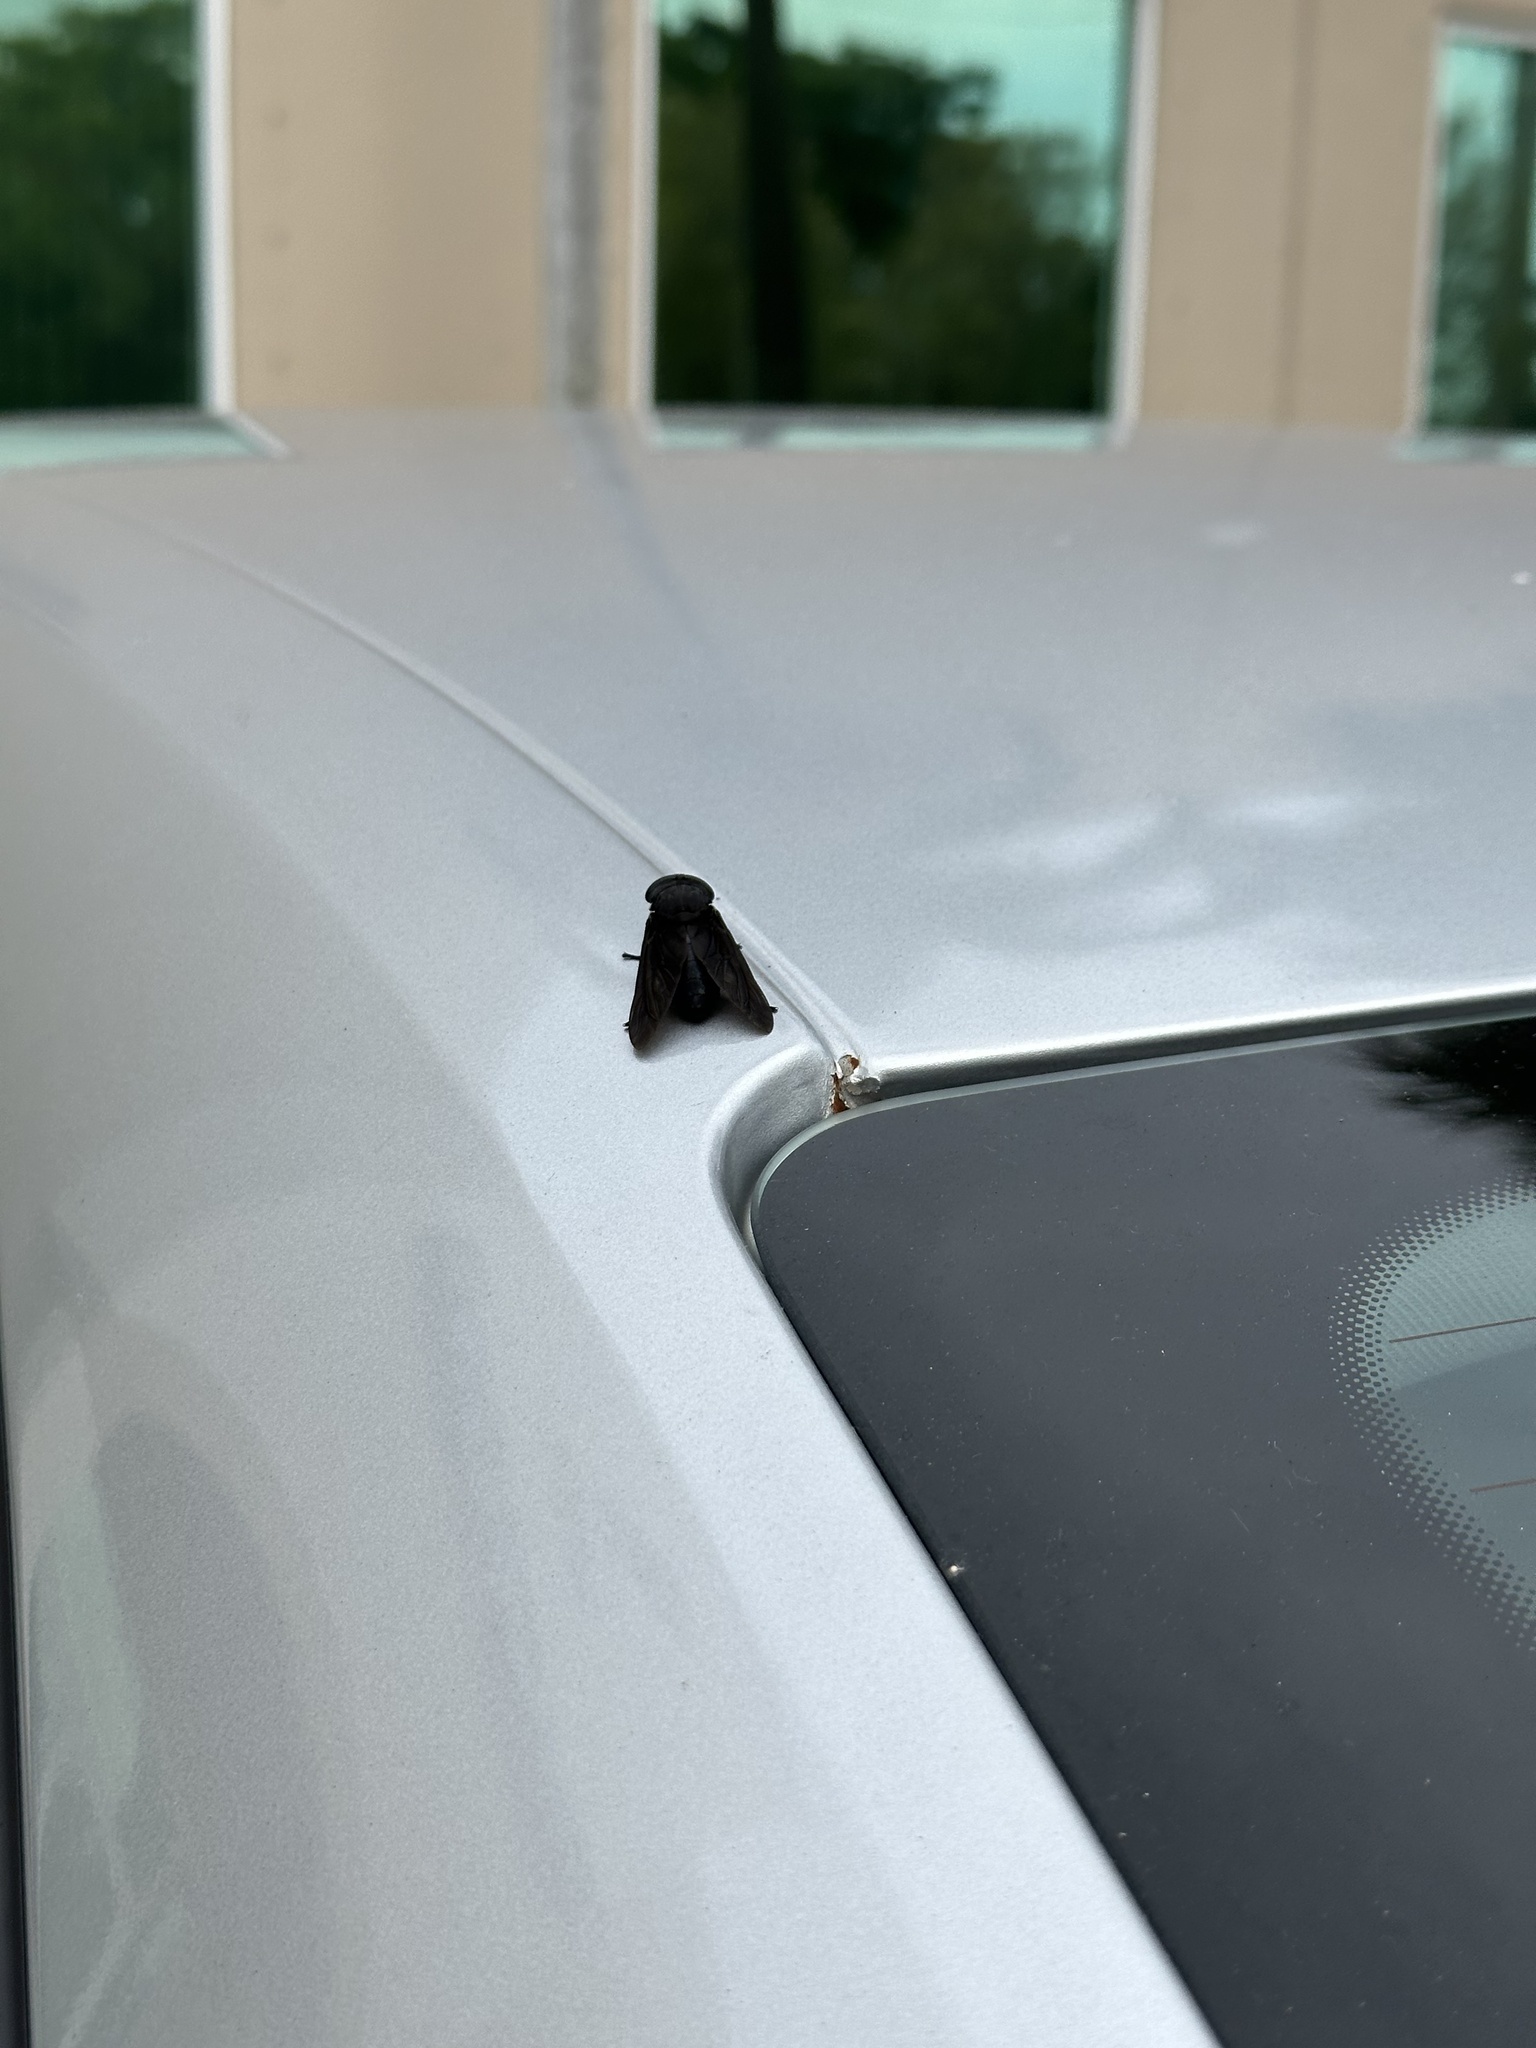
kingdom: Animalia
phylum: Arthropoda
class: Insecta
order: Diptera
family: Tabanidae
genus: Tabanus
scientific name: Tabanus atratus
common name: Black horse fly
